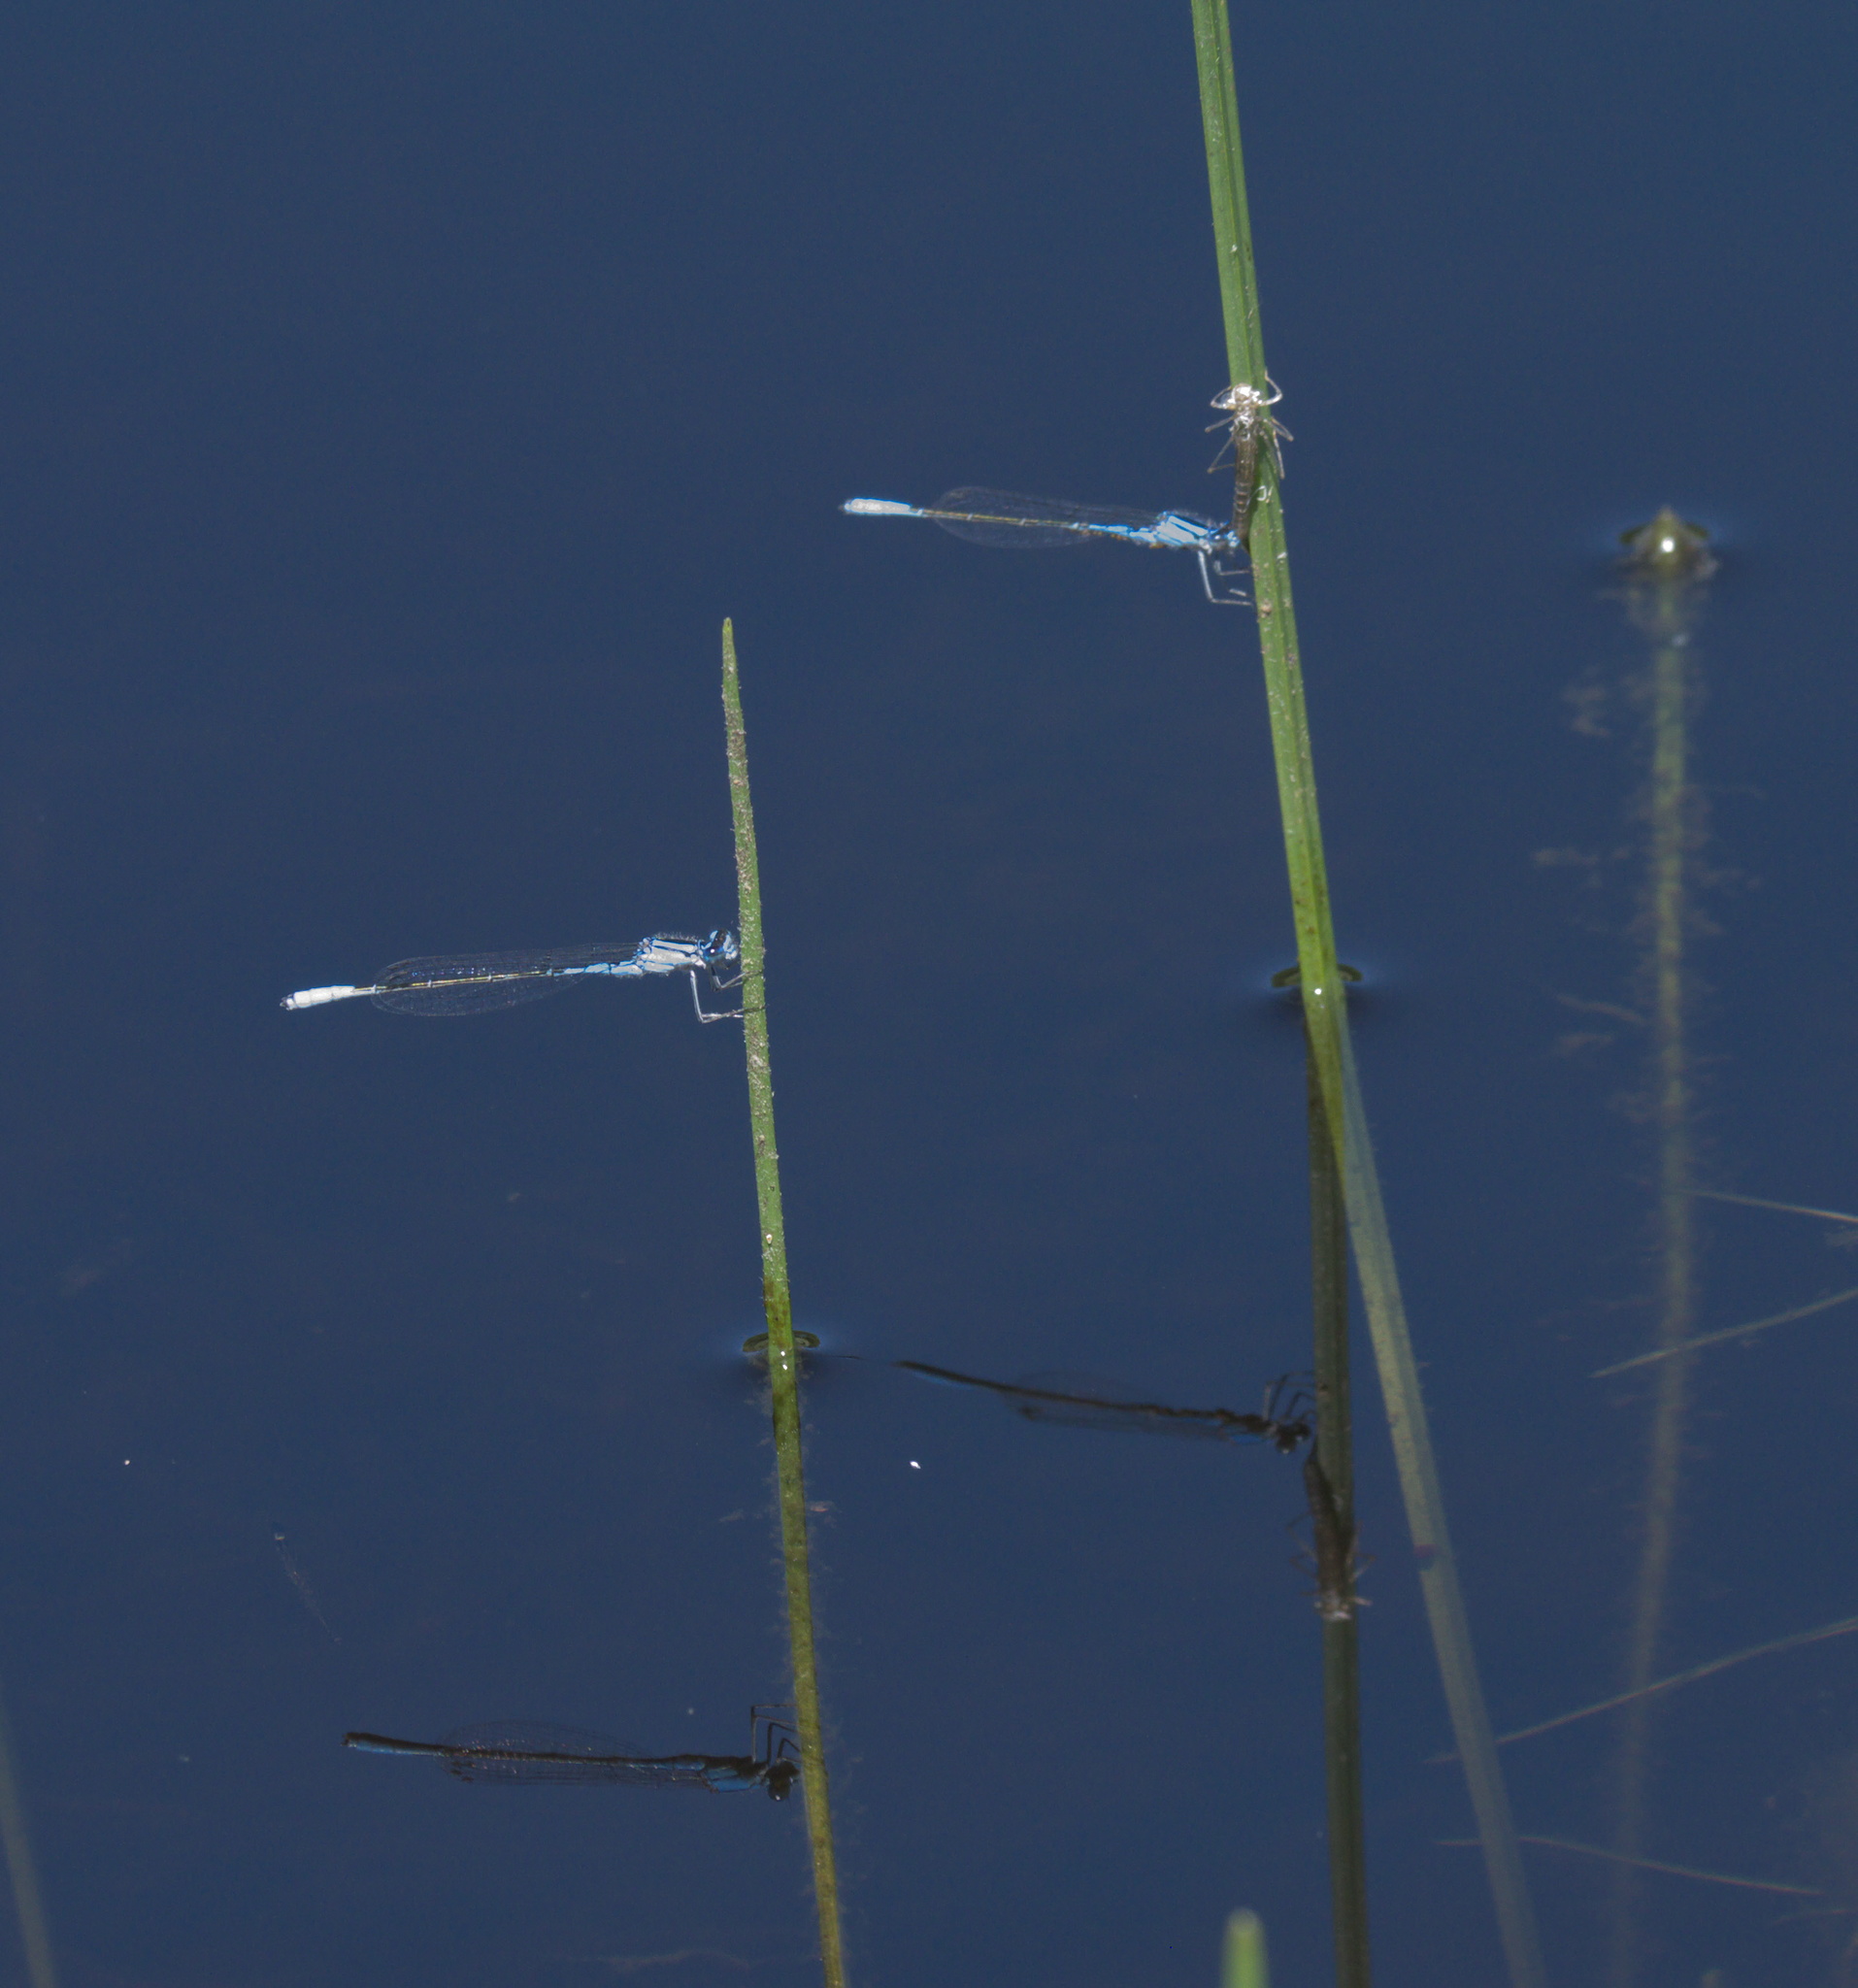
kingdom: Animalia
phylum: Arthropoda
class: Insecta
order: Odonata
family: Coenagrionidae
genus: Enallagma
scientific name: Enallagma aspersum
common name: Azure bluet
